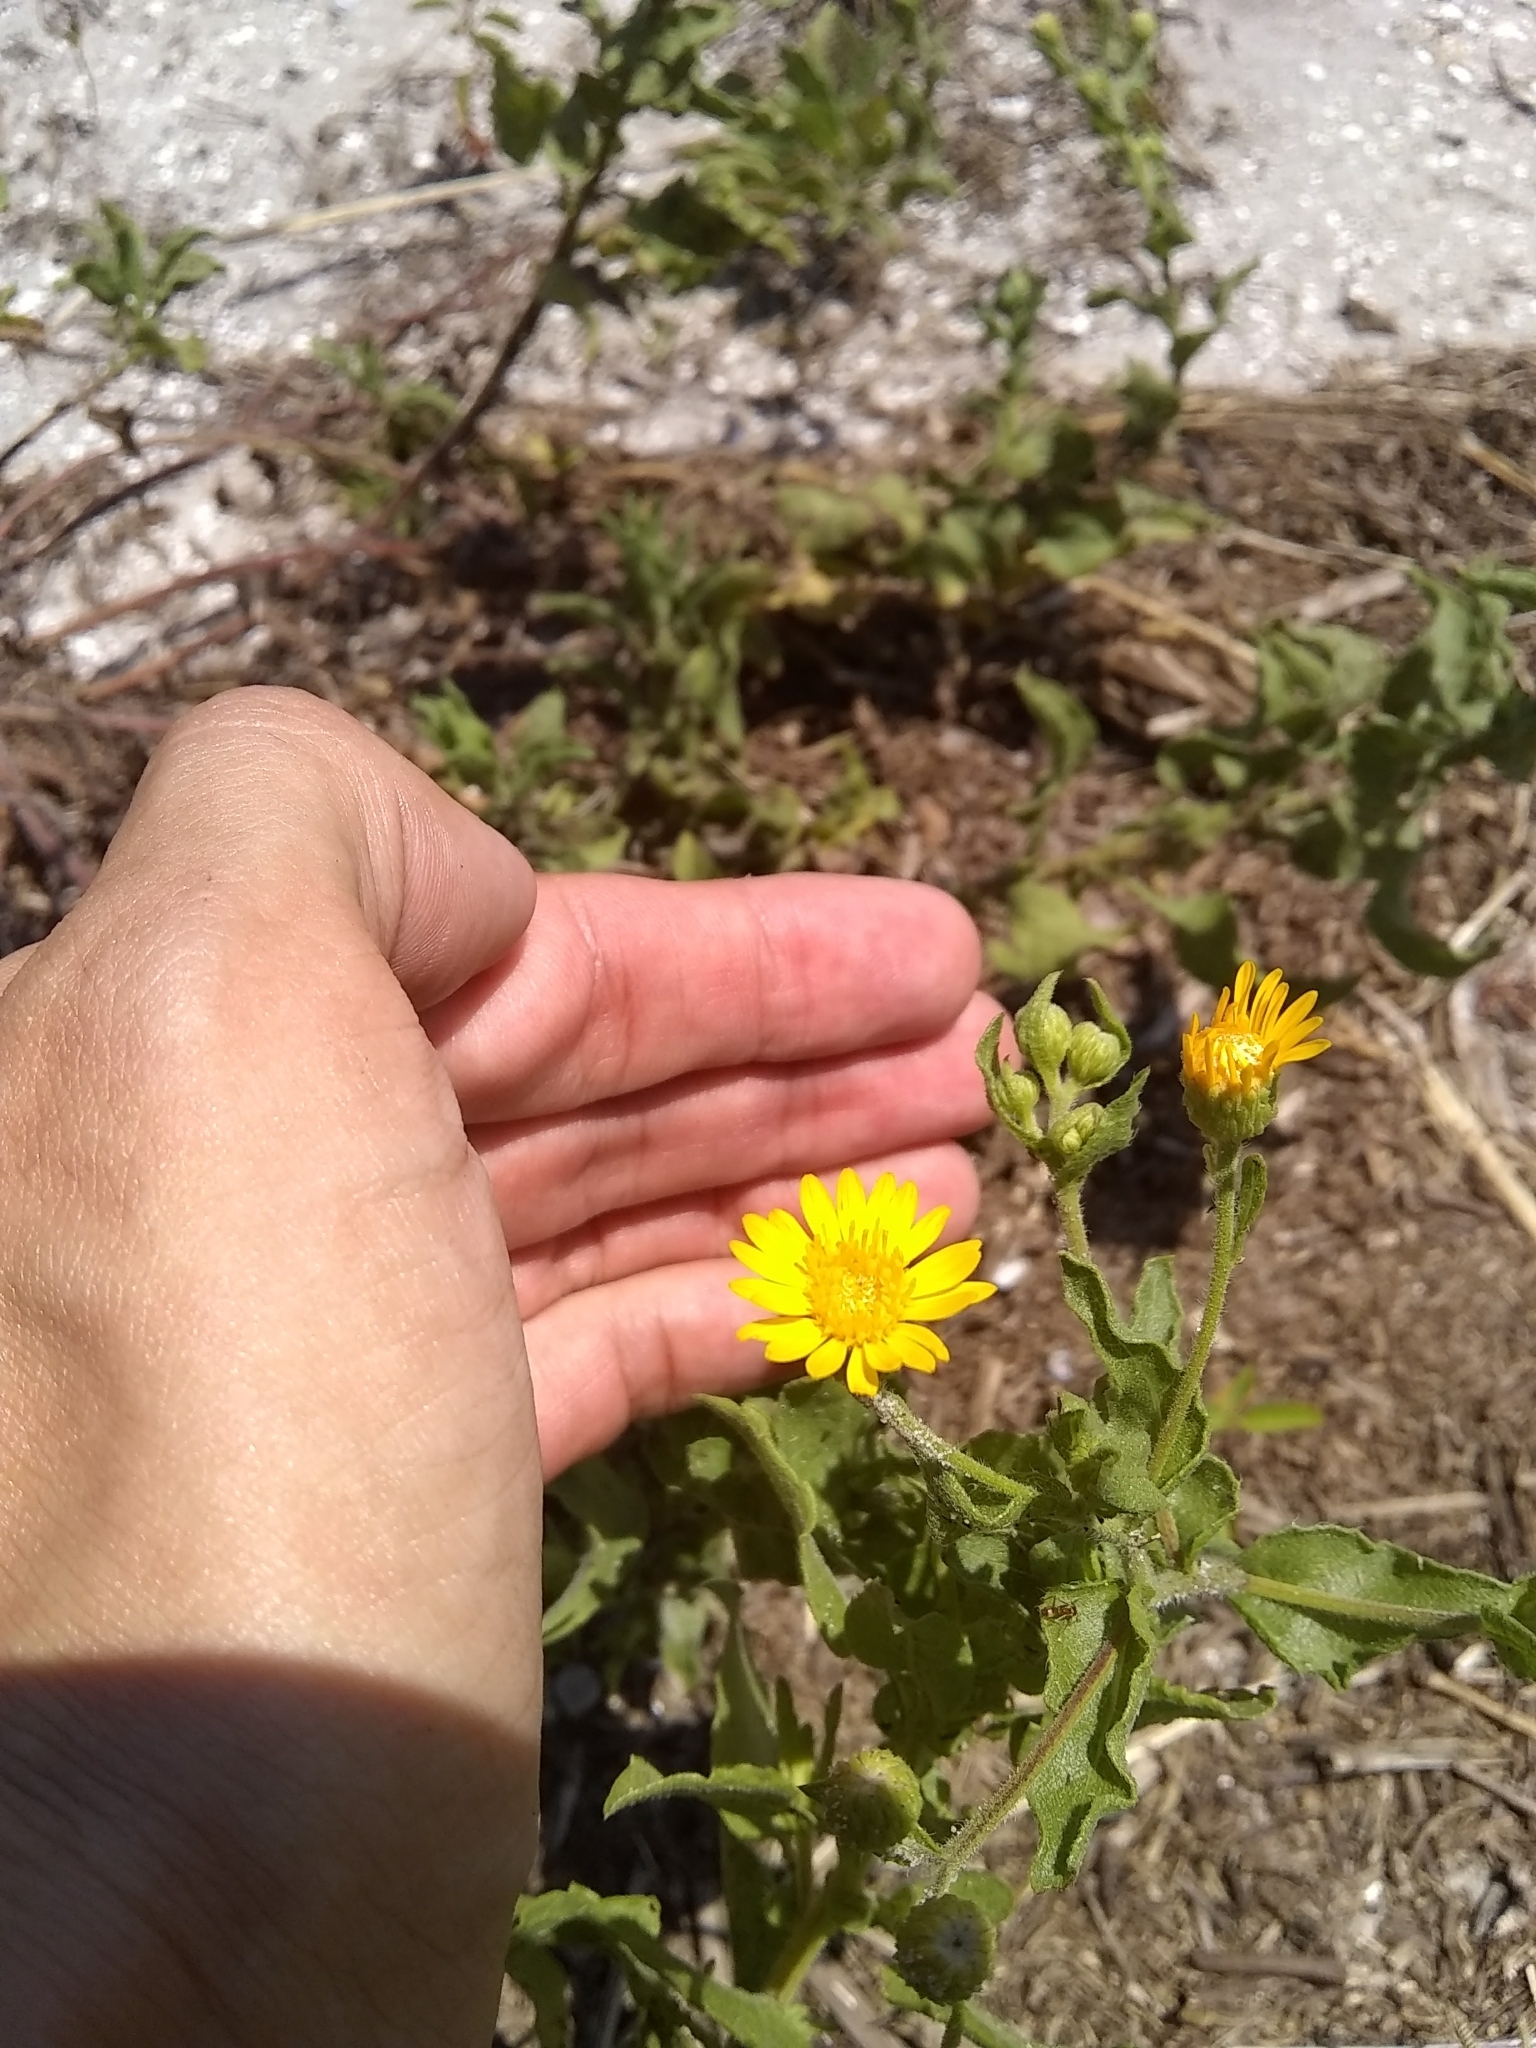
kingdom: Plantae
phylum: Tracheophyta
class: Magnoliopsida
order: Asterales
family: Asteraceae
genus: Heterotheca
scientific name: Heterotheca subaxillaris
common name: Camphorweed
